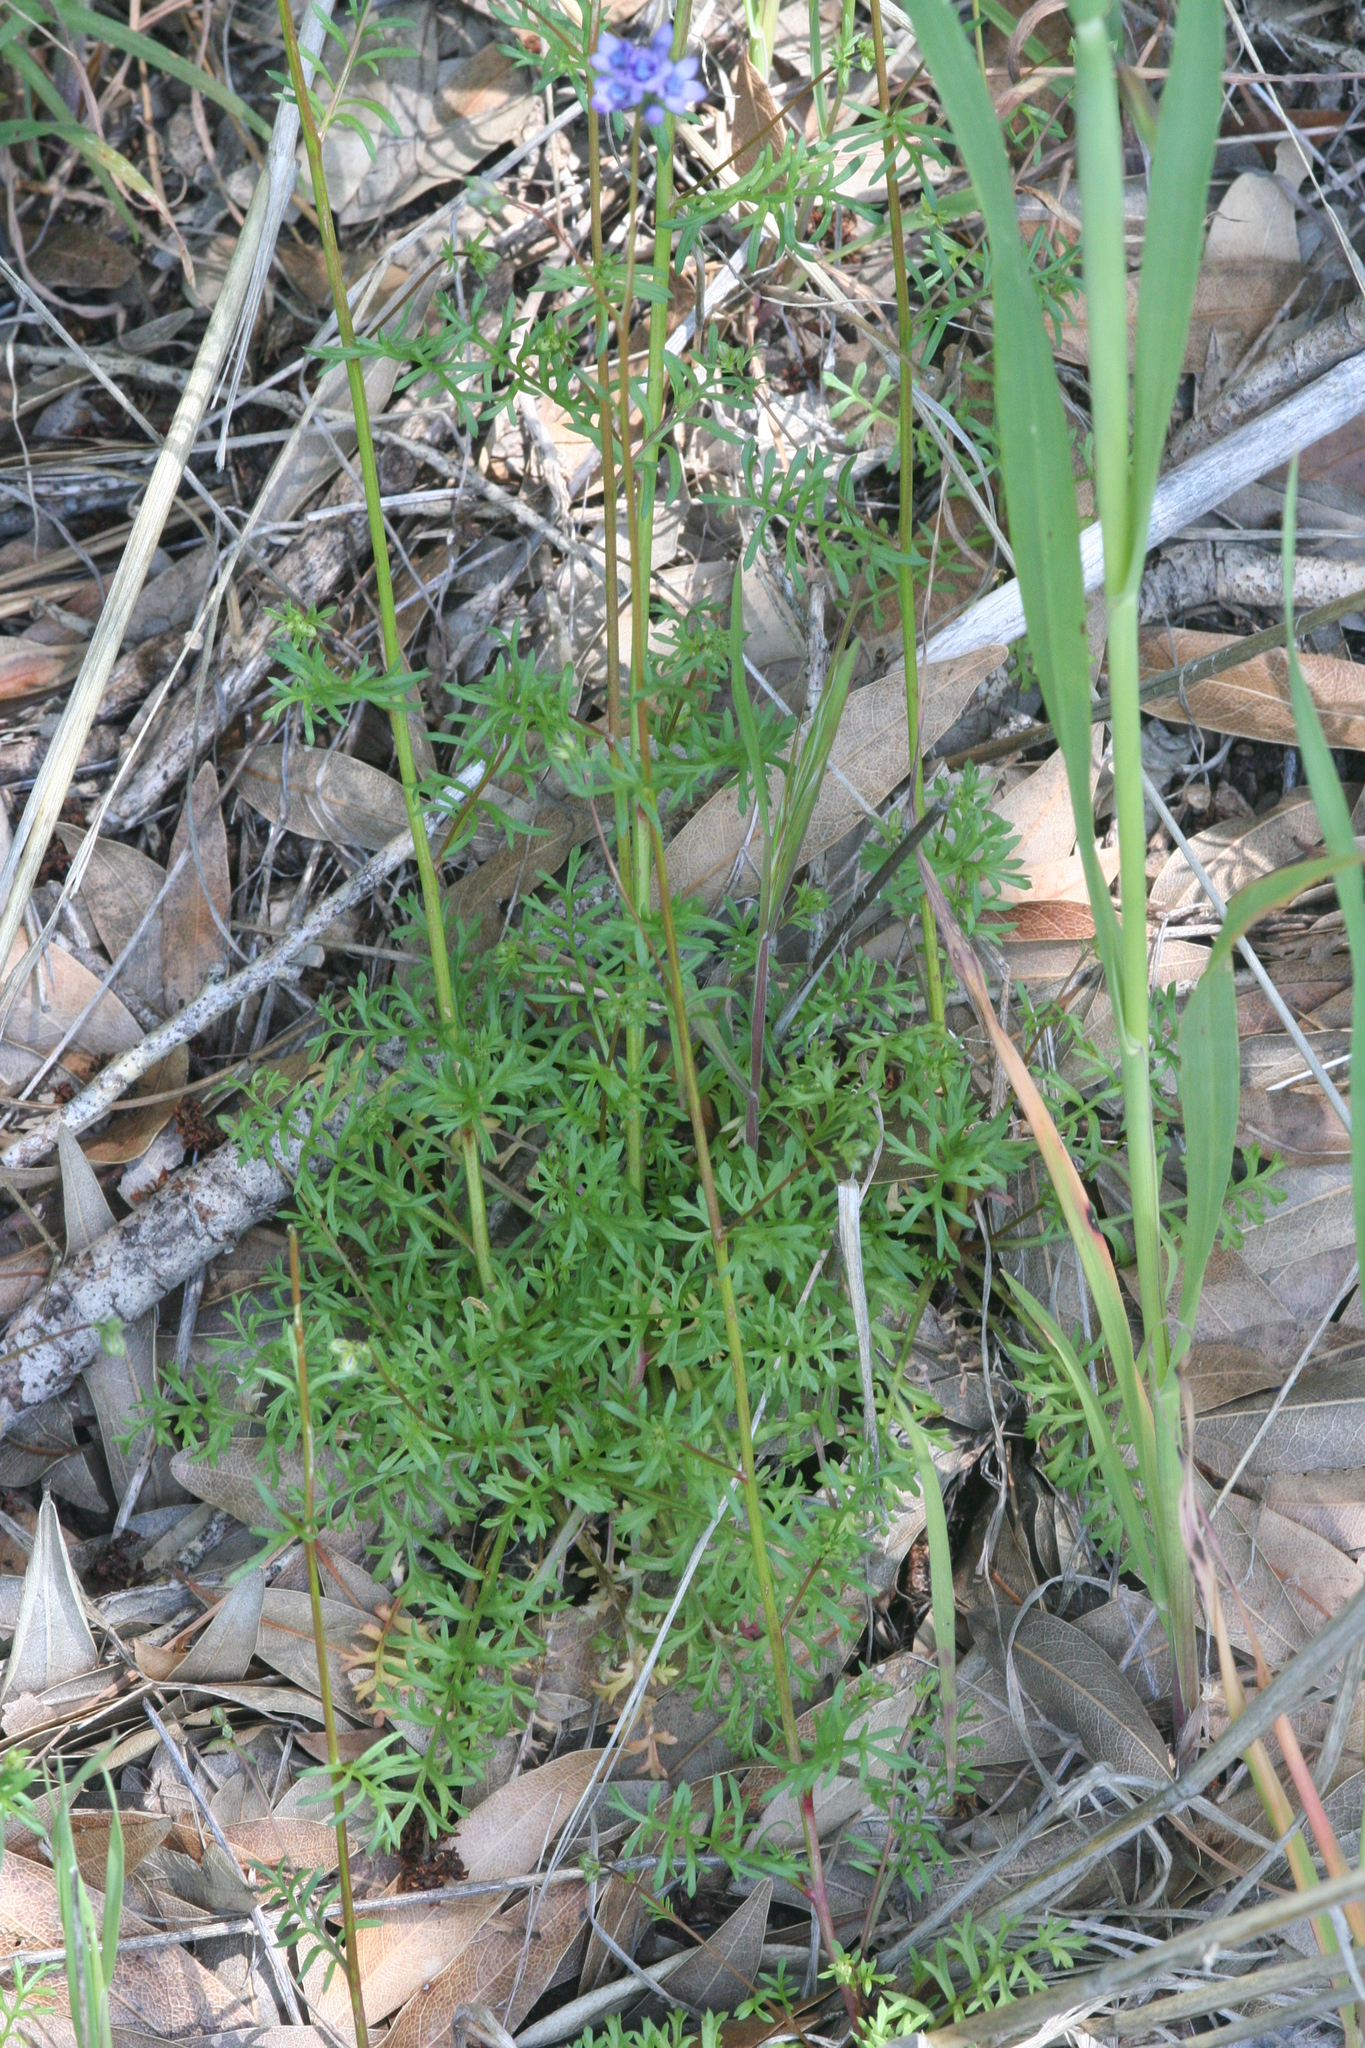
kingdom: Plantae
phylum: Tracheophyta
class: Magnoliopsida
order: Ericales
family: Polemoniaceae
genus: Gilia
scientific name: Gilia achilleifolia
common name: California gily-flower
